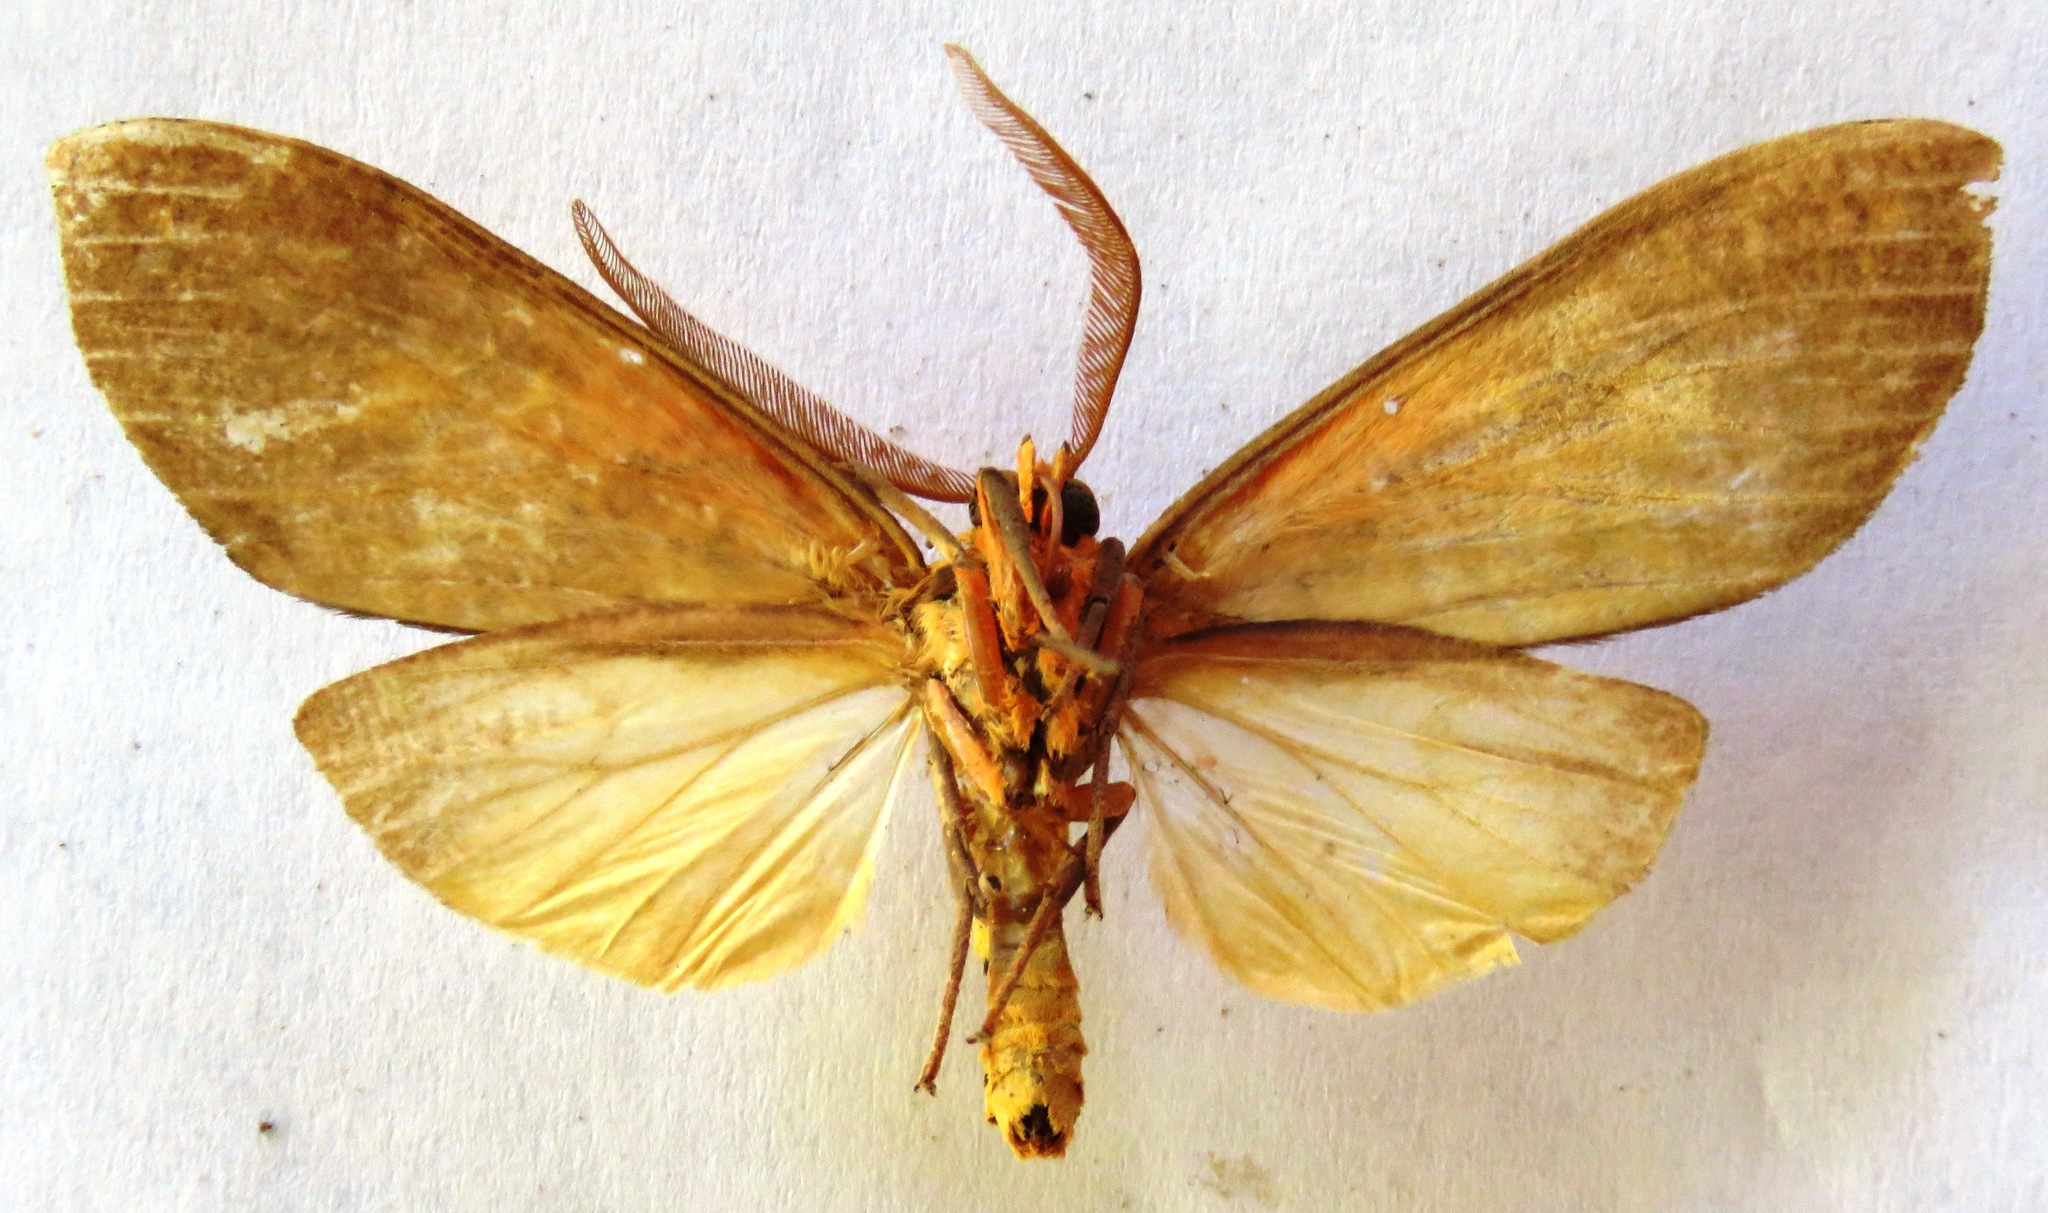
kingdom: Animalia
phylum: Arthropoda
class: Insecta
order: Lepidoptera
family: Erebidae
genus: Ammalo
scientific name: Ammalo helops
